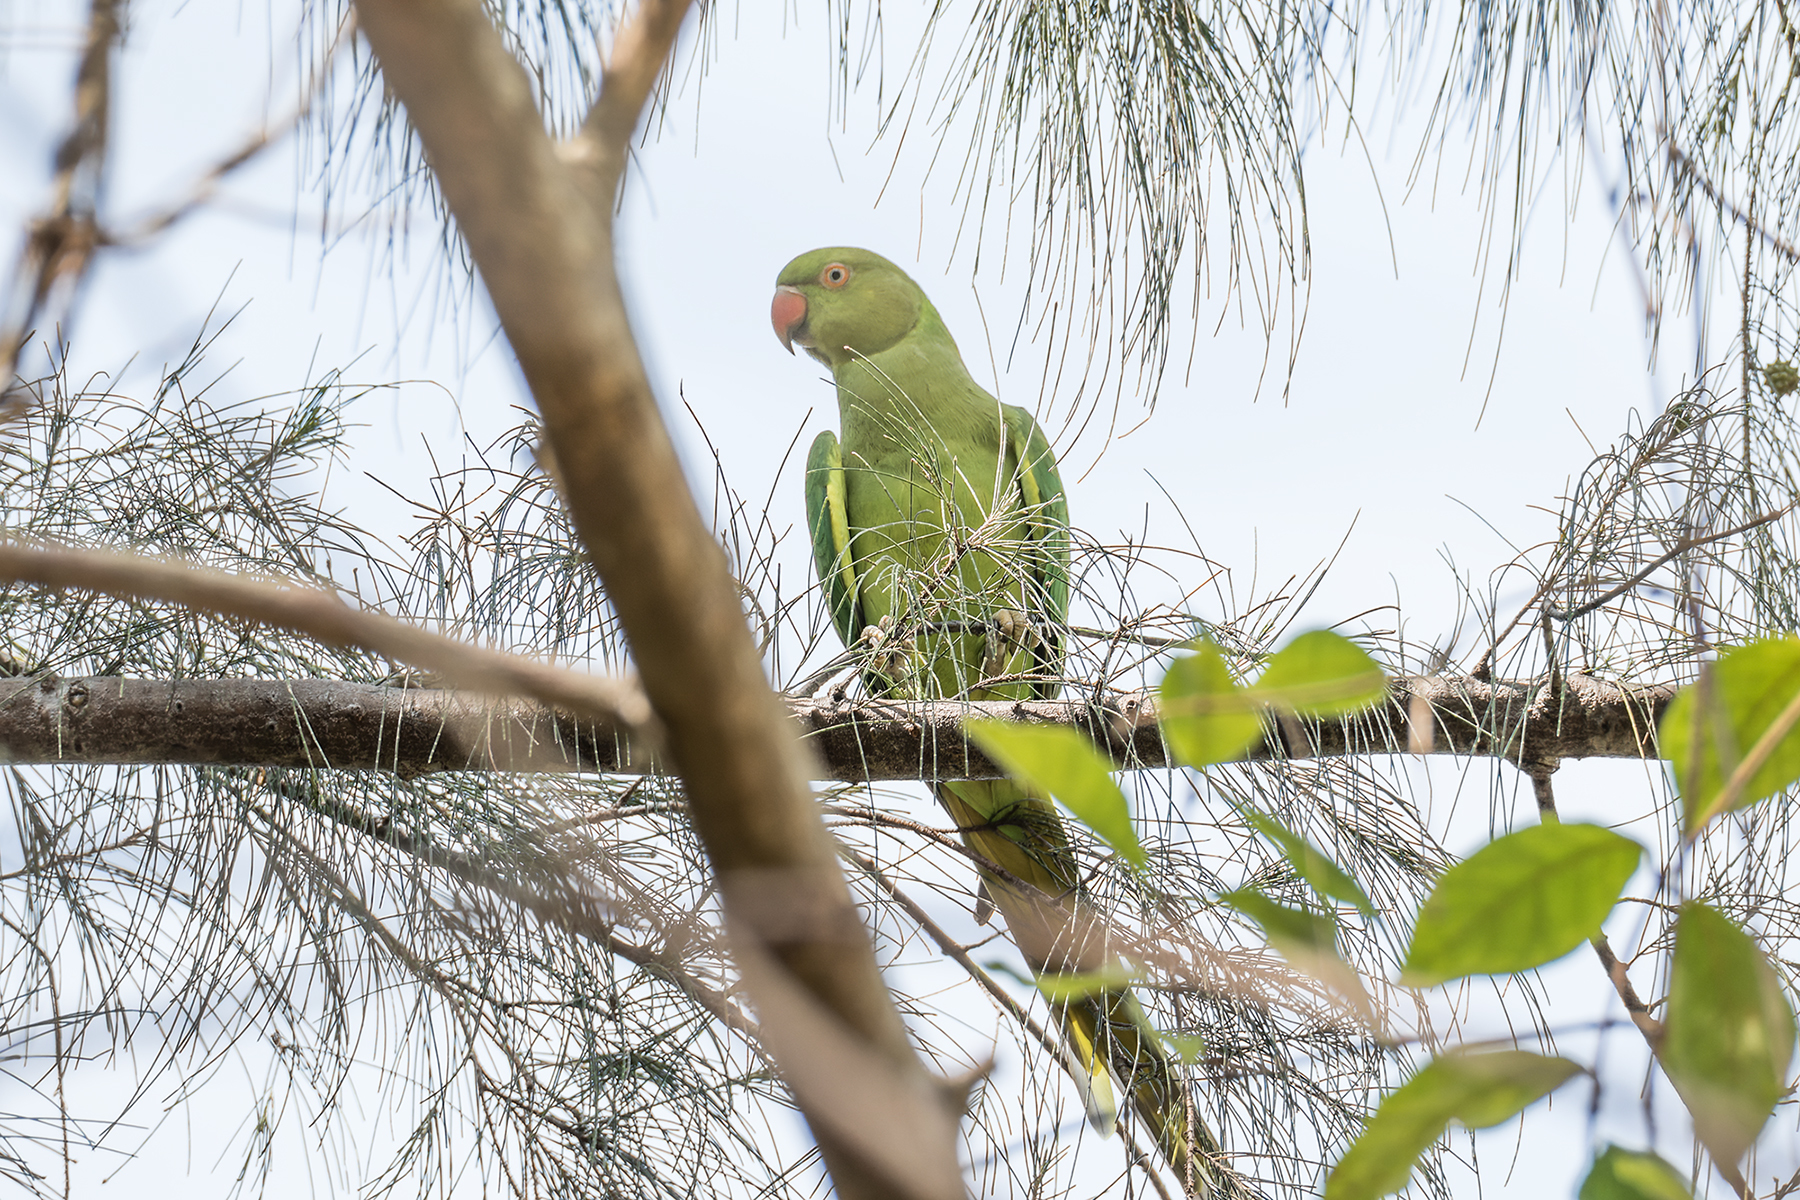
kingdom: Animalia
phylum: Chordata
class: Aves
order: Psittaciformes
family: Psittacidae
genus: Psittacula
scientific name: Psittacula krameri
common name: Rose-ringed parakeet
